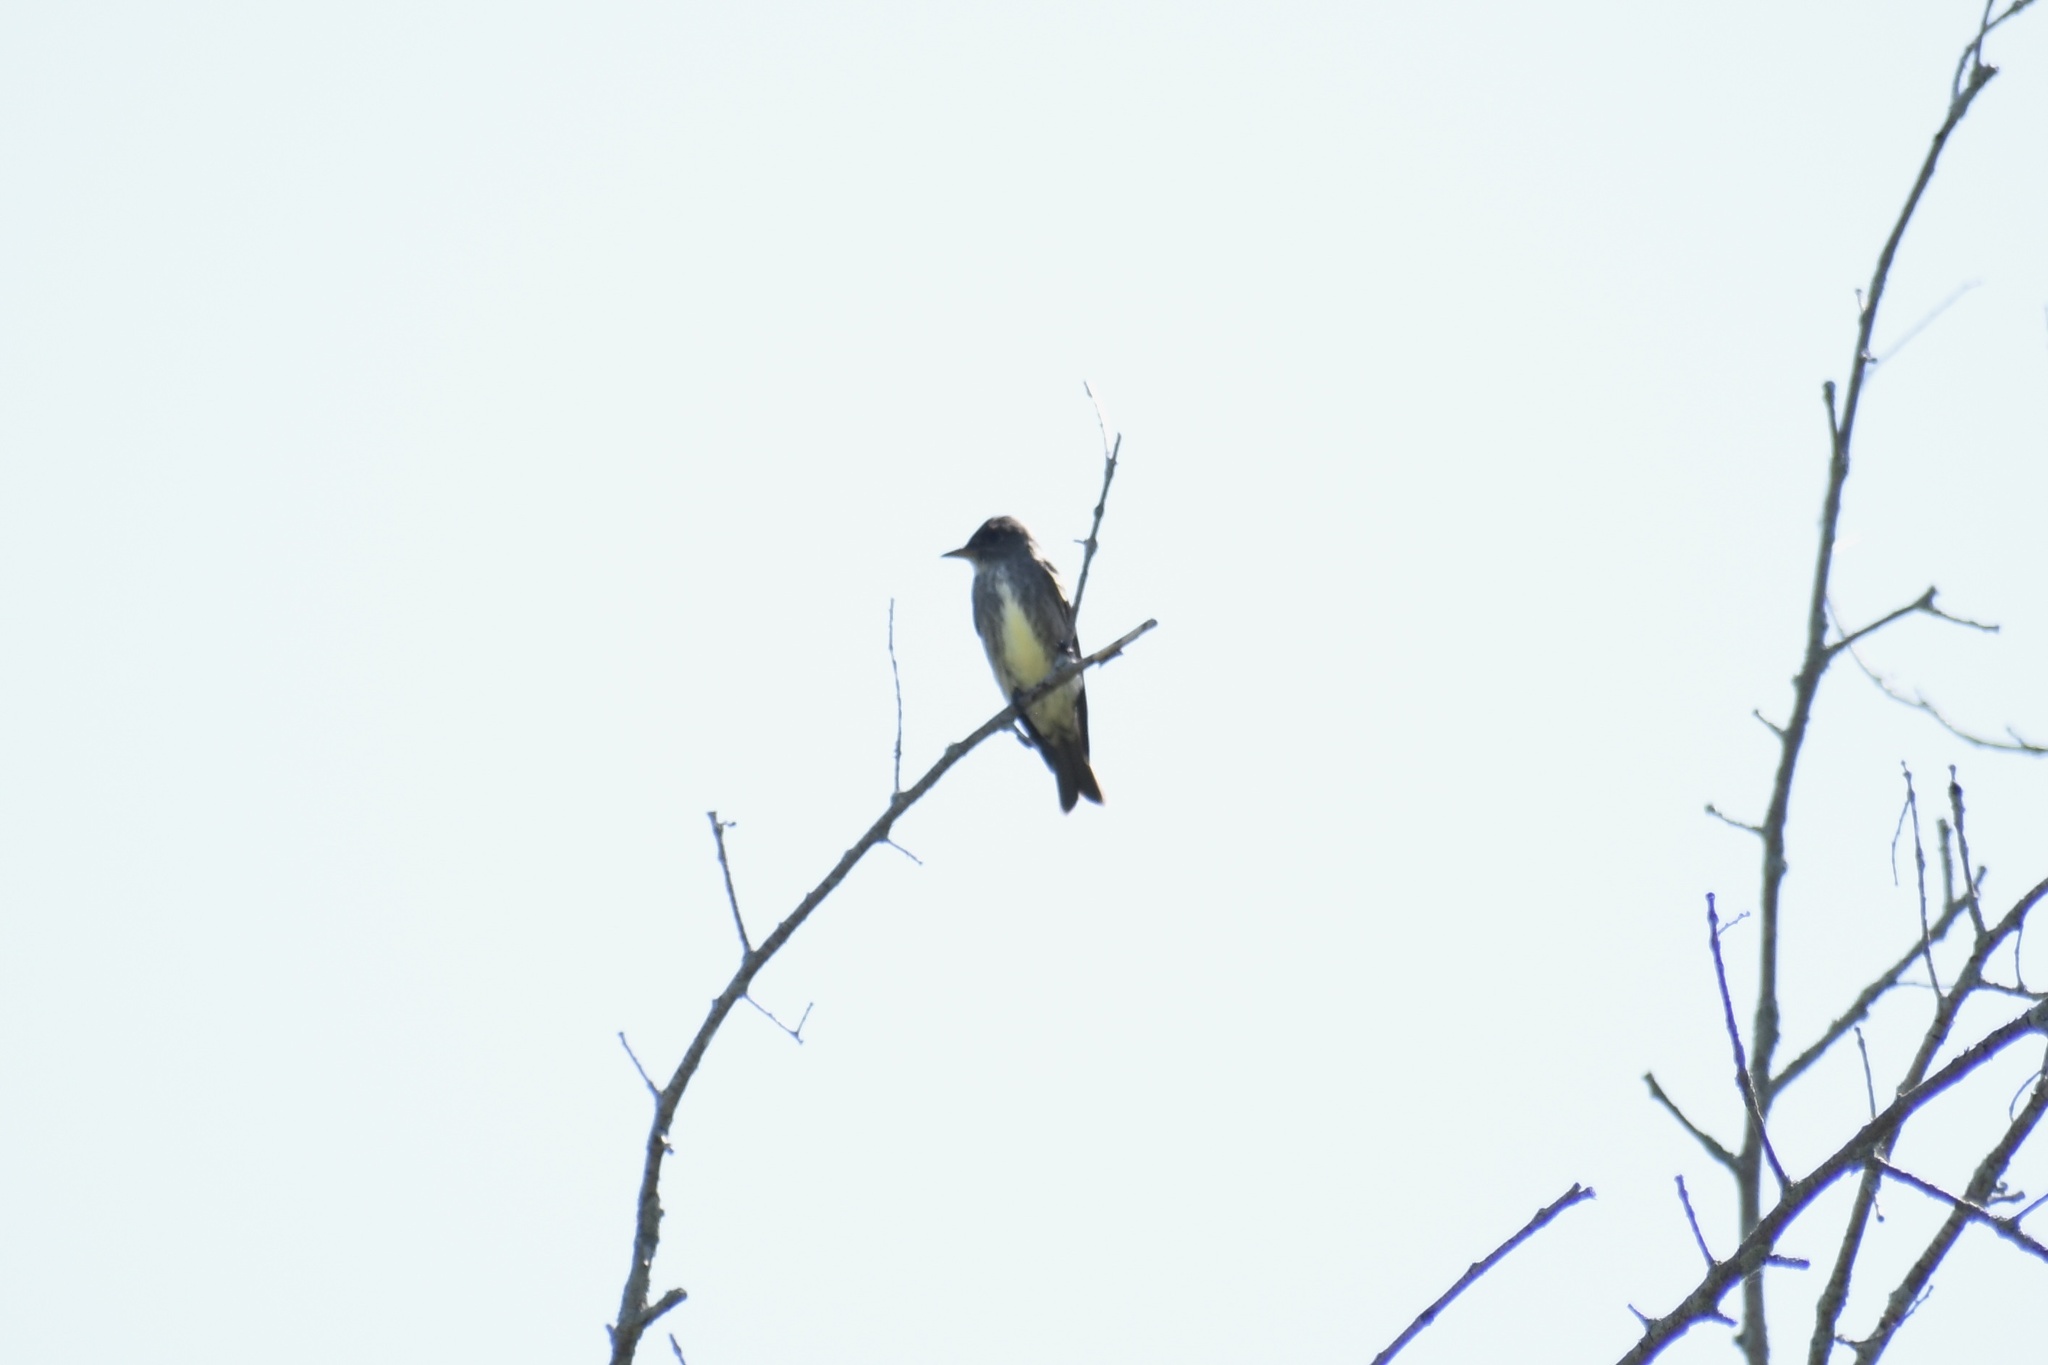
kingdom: Animalia
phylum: Chordata
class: Aves
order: Passeriformes
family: Tyrannidae
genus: Contopus
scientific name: Contopus cooperi
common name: Olive-sided flycatcher
